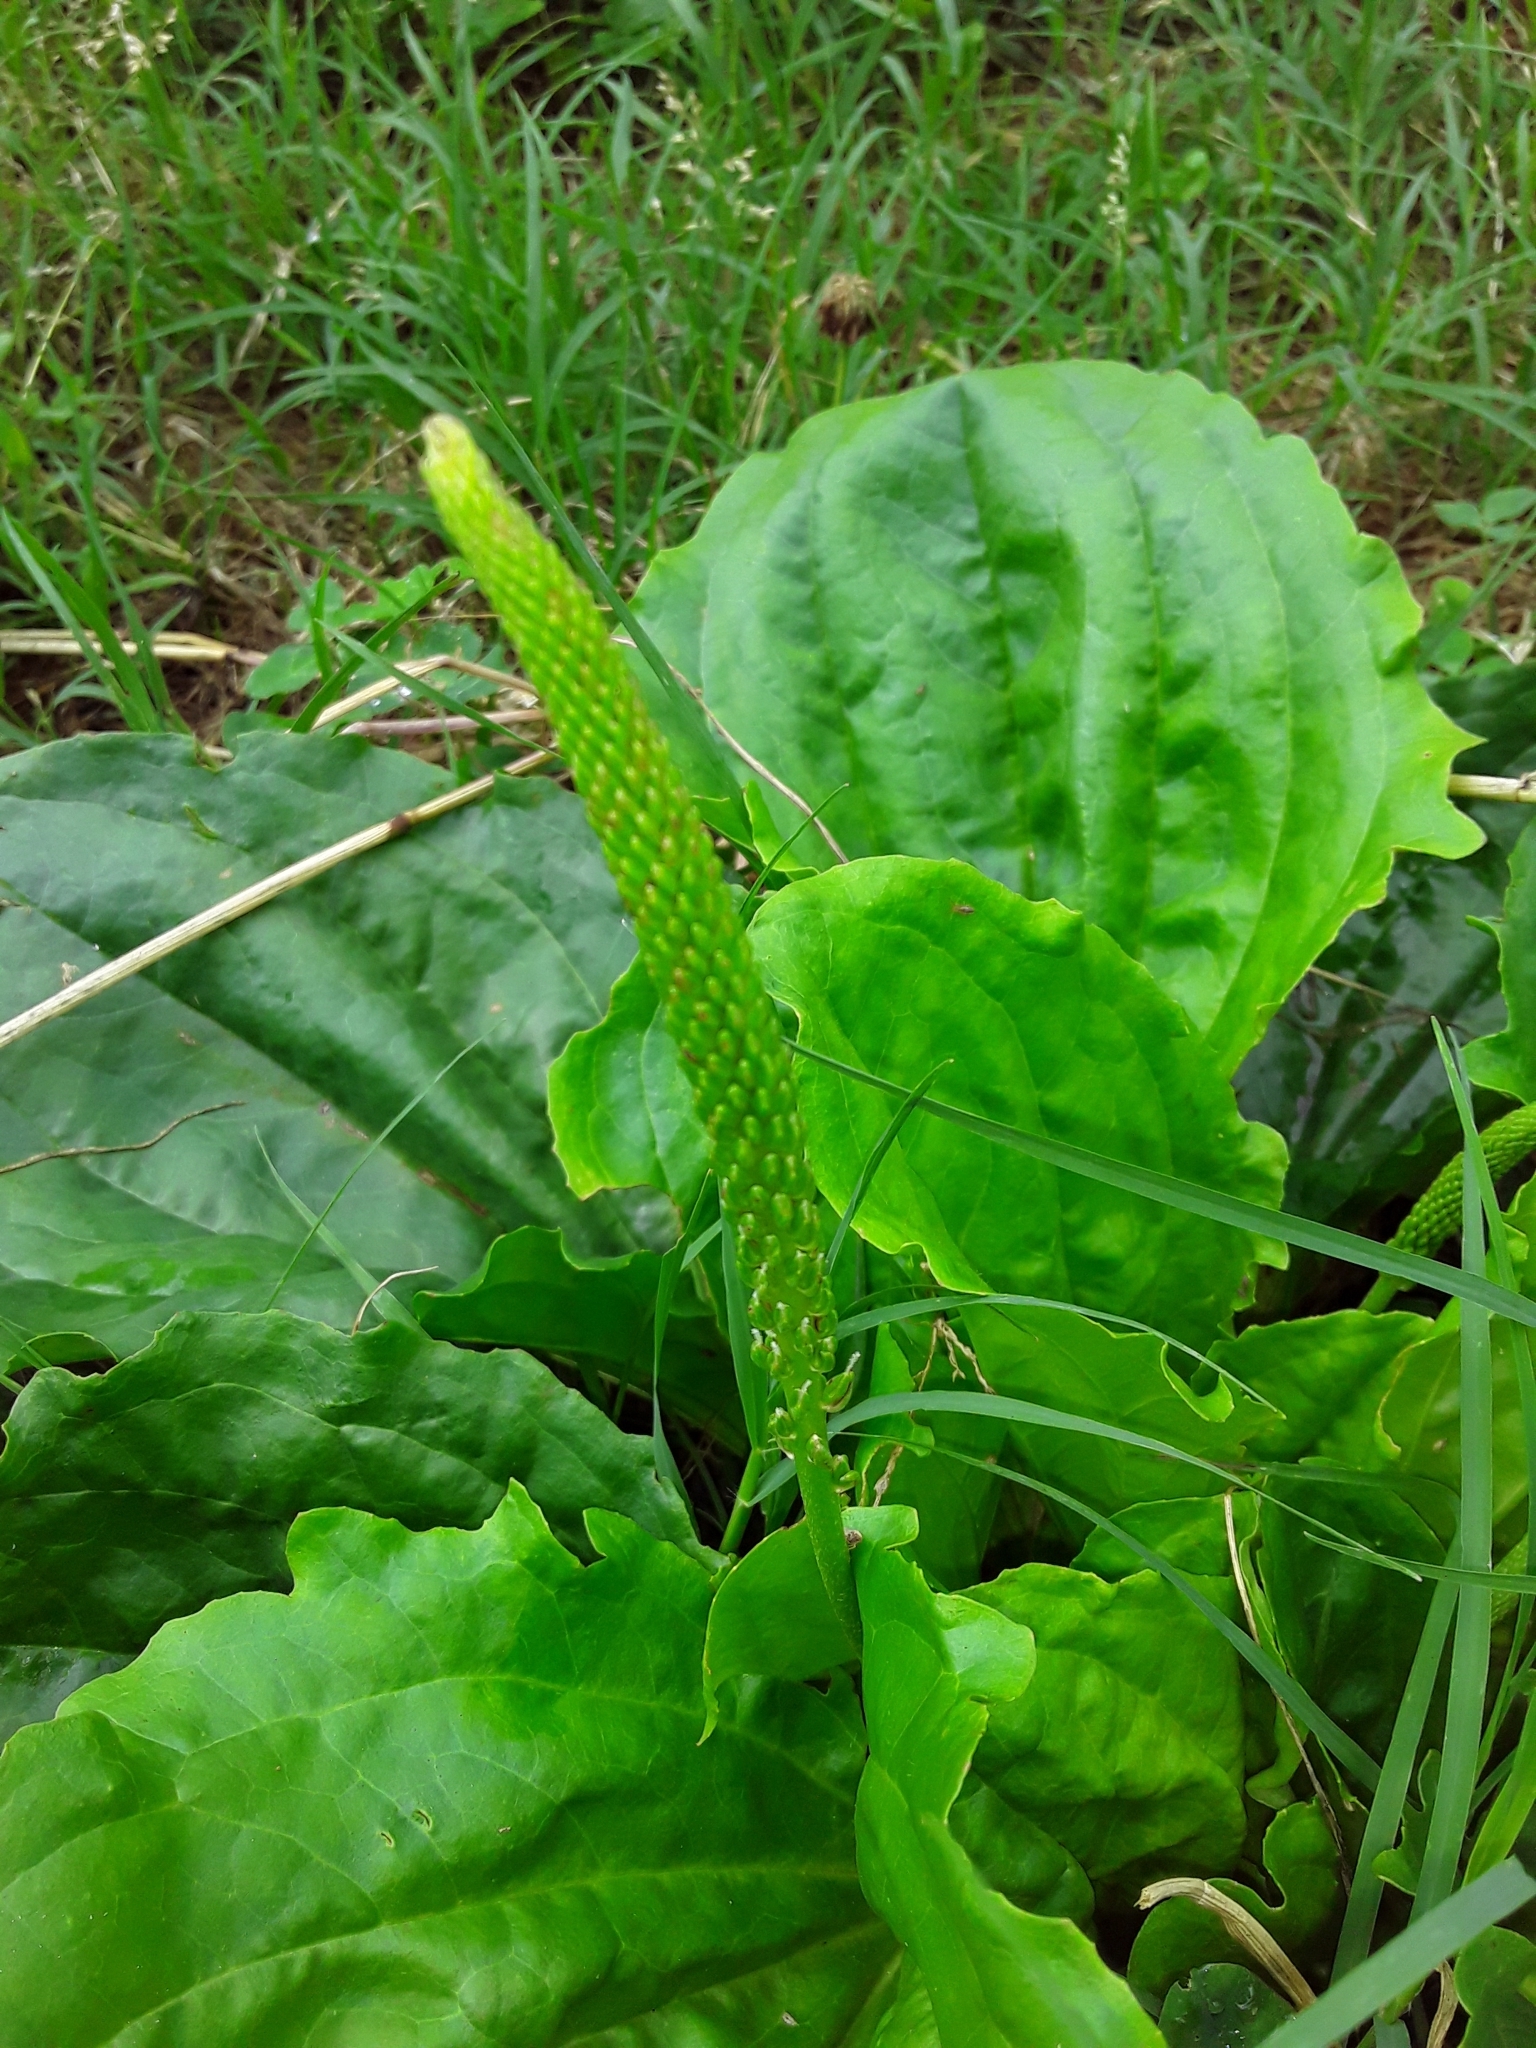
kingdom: Plantae
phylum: Tracheophyta
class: Magnoliopsida
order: Lamiales
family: Plantaginaceae
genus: Plantago
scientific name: Plantago rugelii
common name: American plantain
